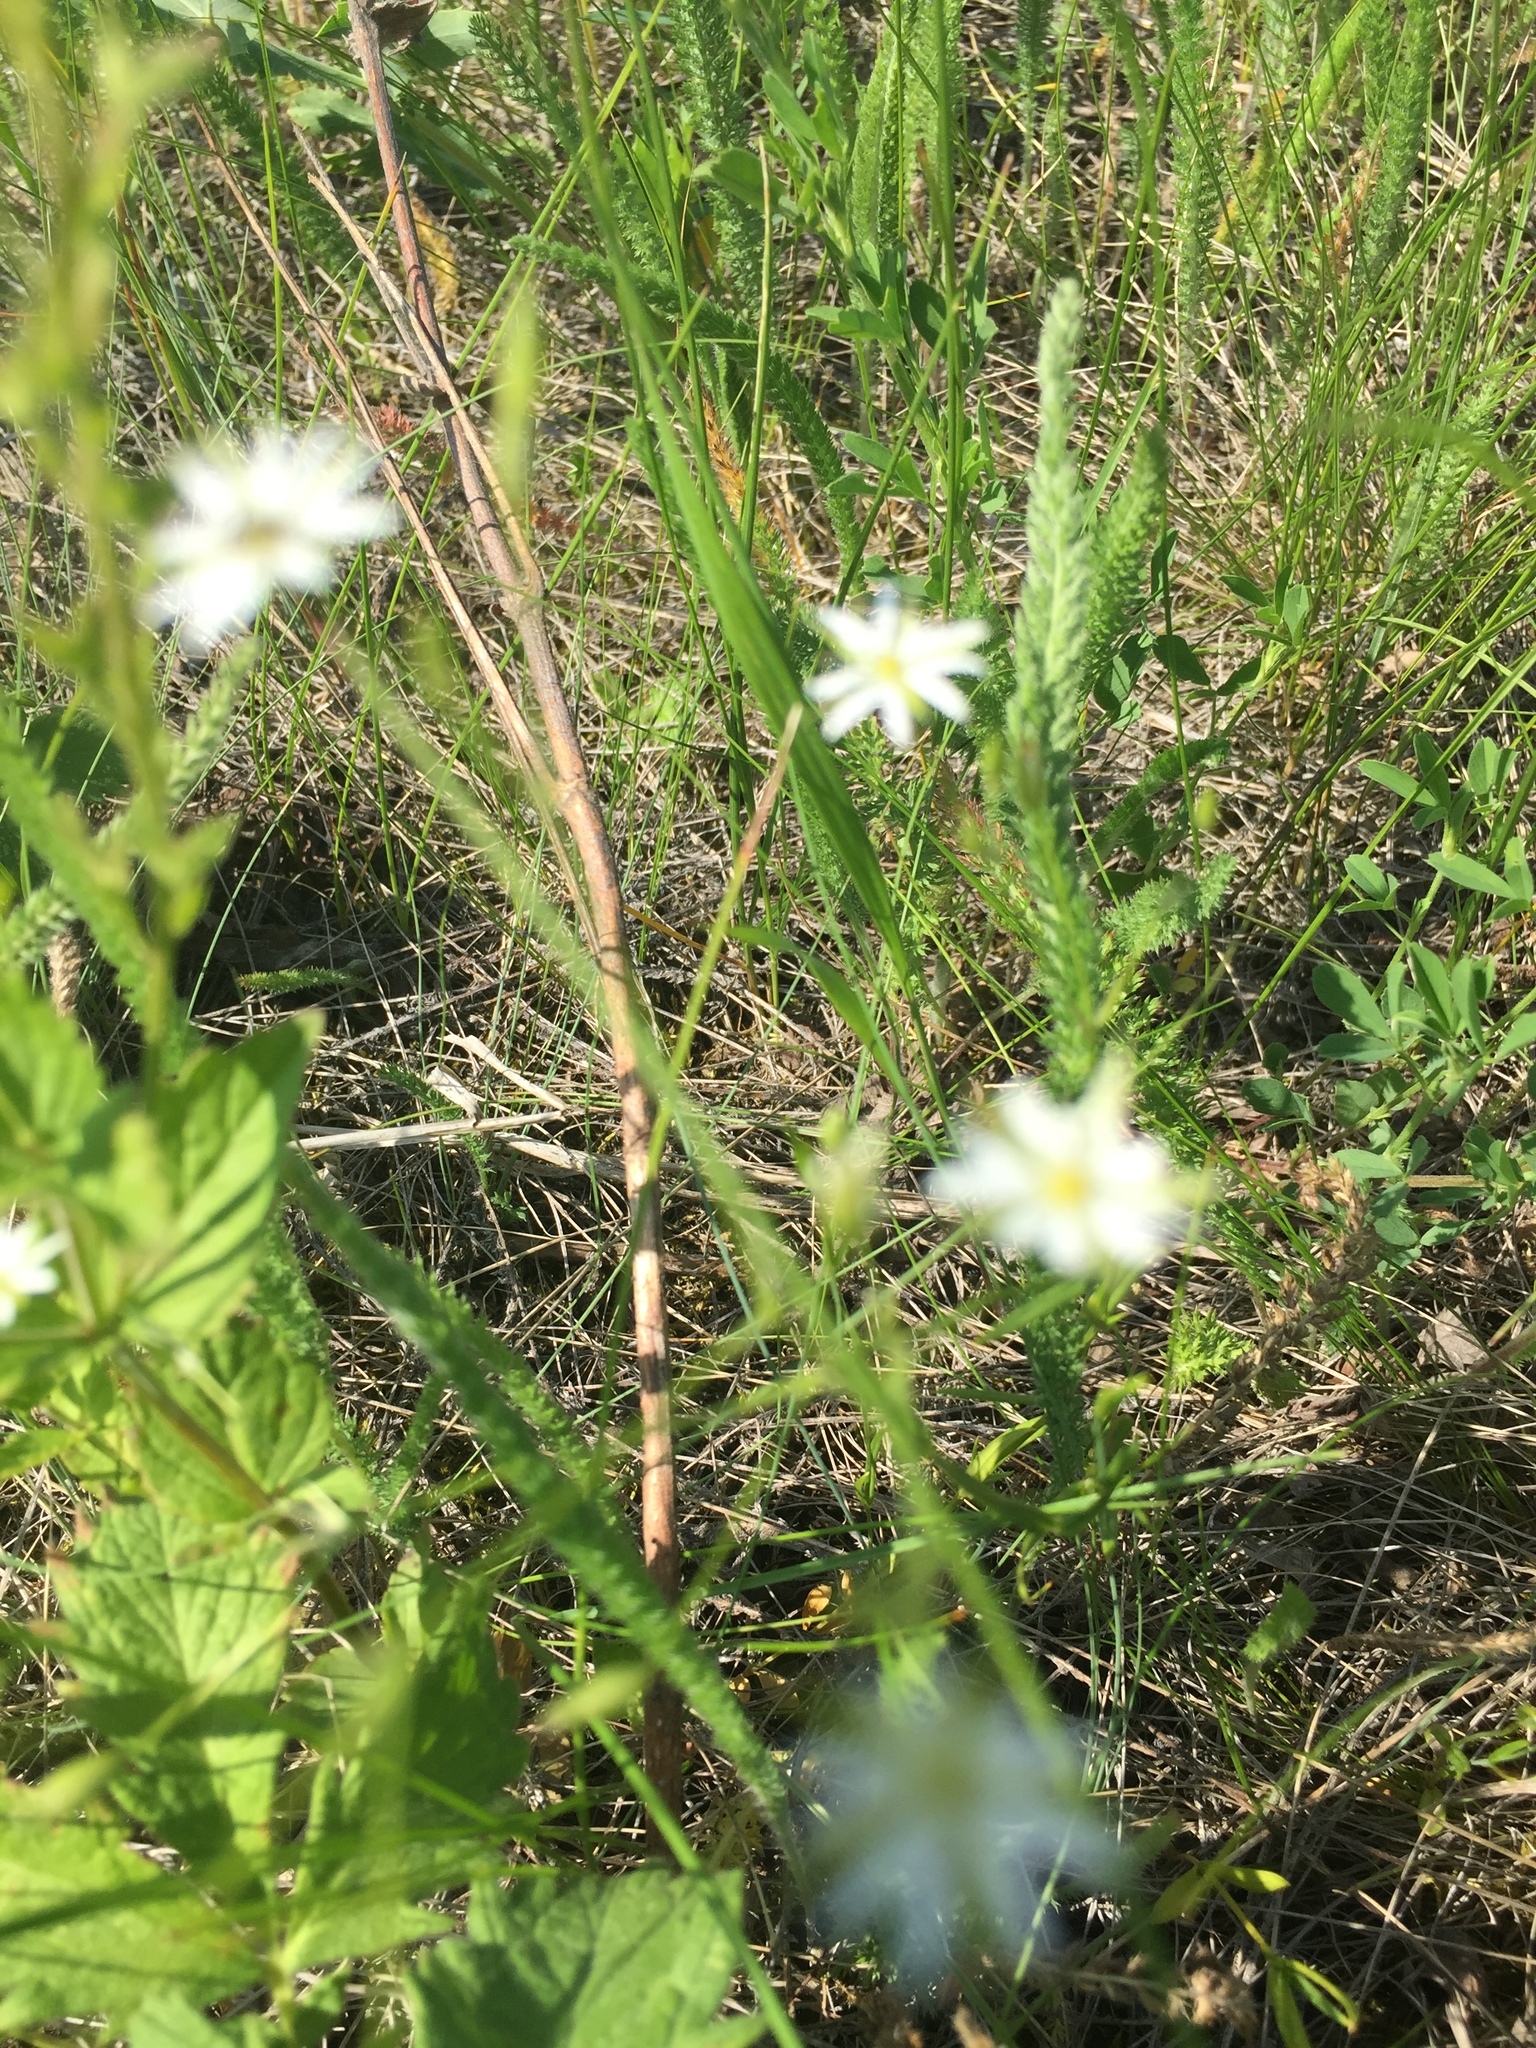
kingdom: Plantae
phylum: Tracheophyta
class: Magnoliopsida
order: Caryophyllales
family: Caryophyllaceae
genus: Stellaria
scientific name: Stellaria graminea
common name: Grass-like starwort
